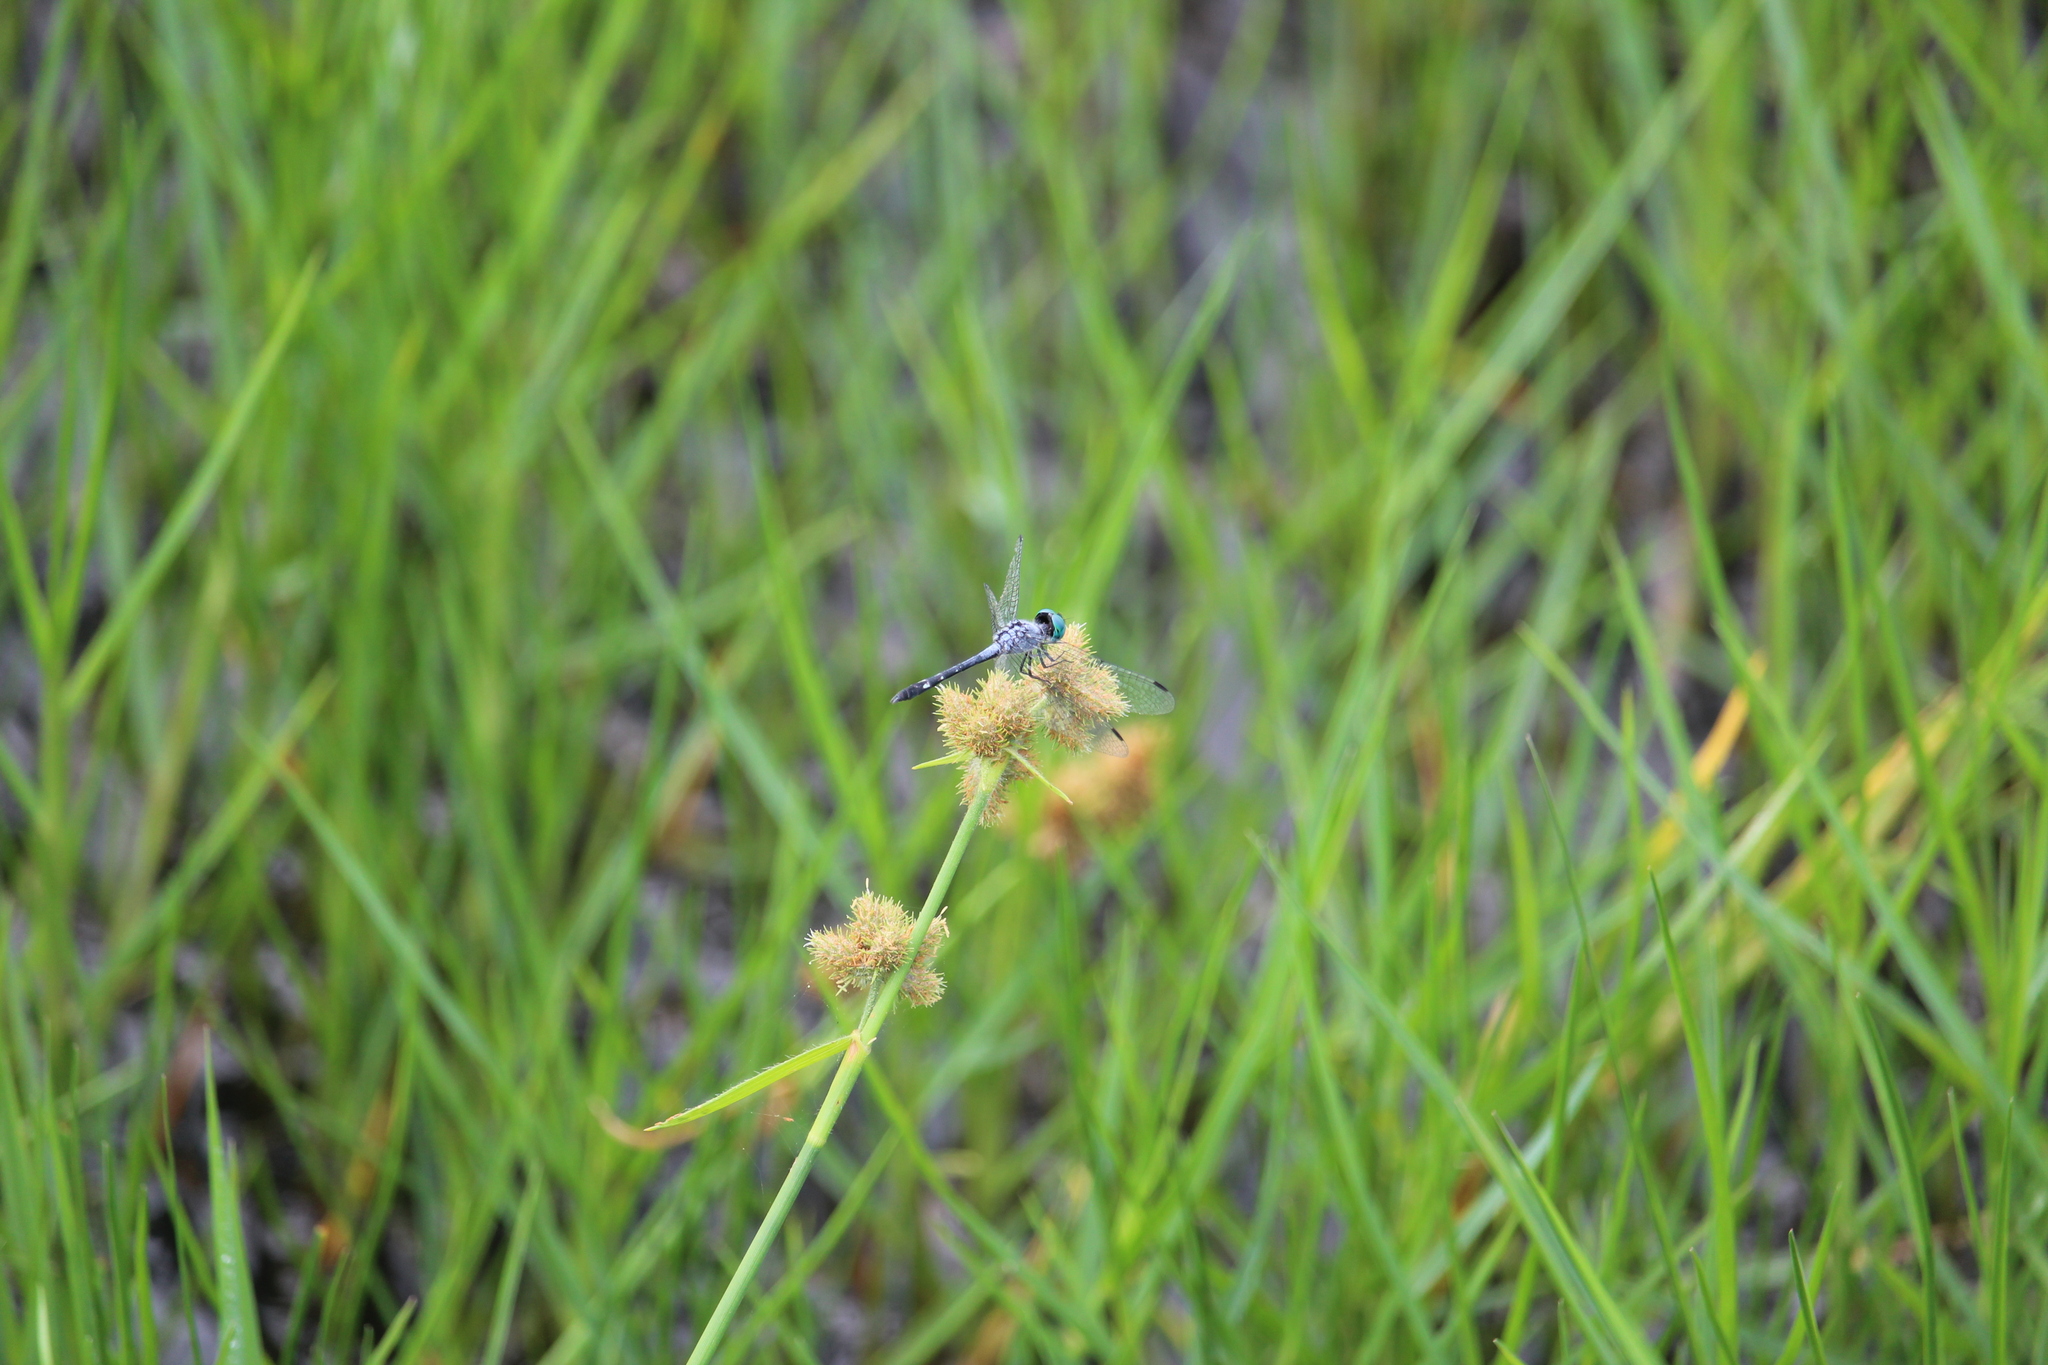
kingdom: Animalia
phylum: Arthropoda
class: Insecta
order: Odonata
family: Libellulidae
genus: Micrathyria
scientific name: Micrathyria debilis
